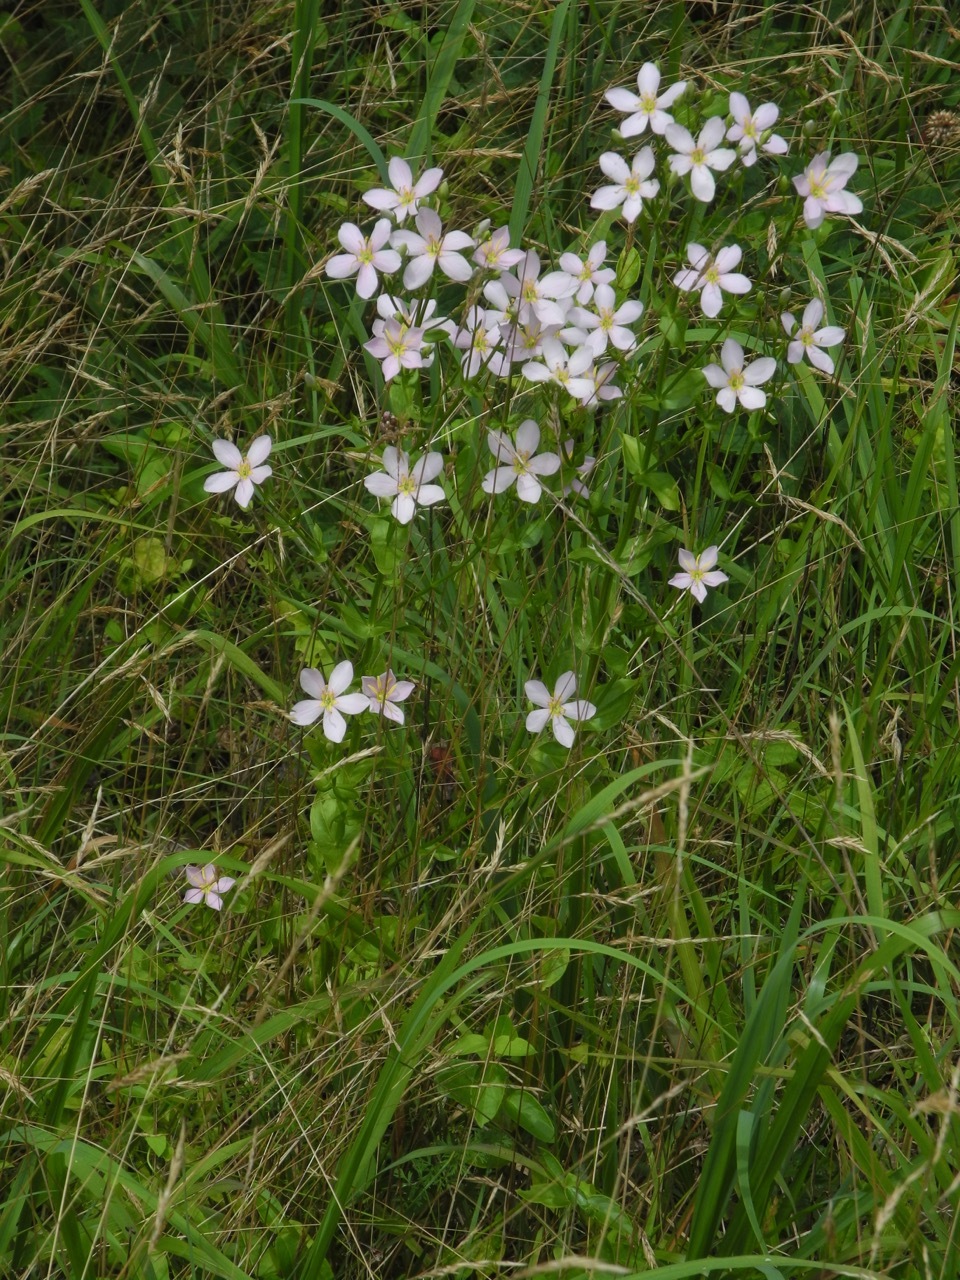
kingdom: Plantae
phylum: Tracheophyta
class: Magnoliopsida
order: Gentianales
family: Gentianaceae
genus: Sabatia
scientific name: Sabatia angularis
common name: Rose-pink
